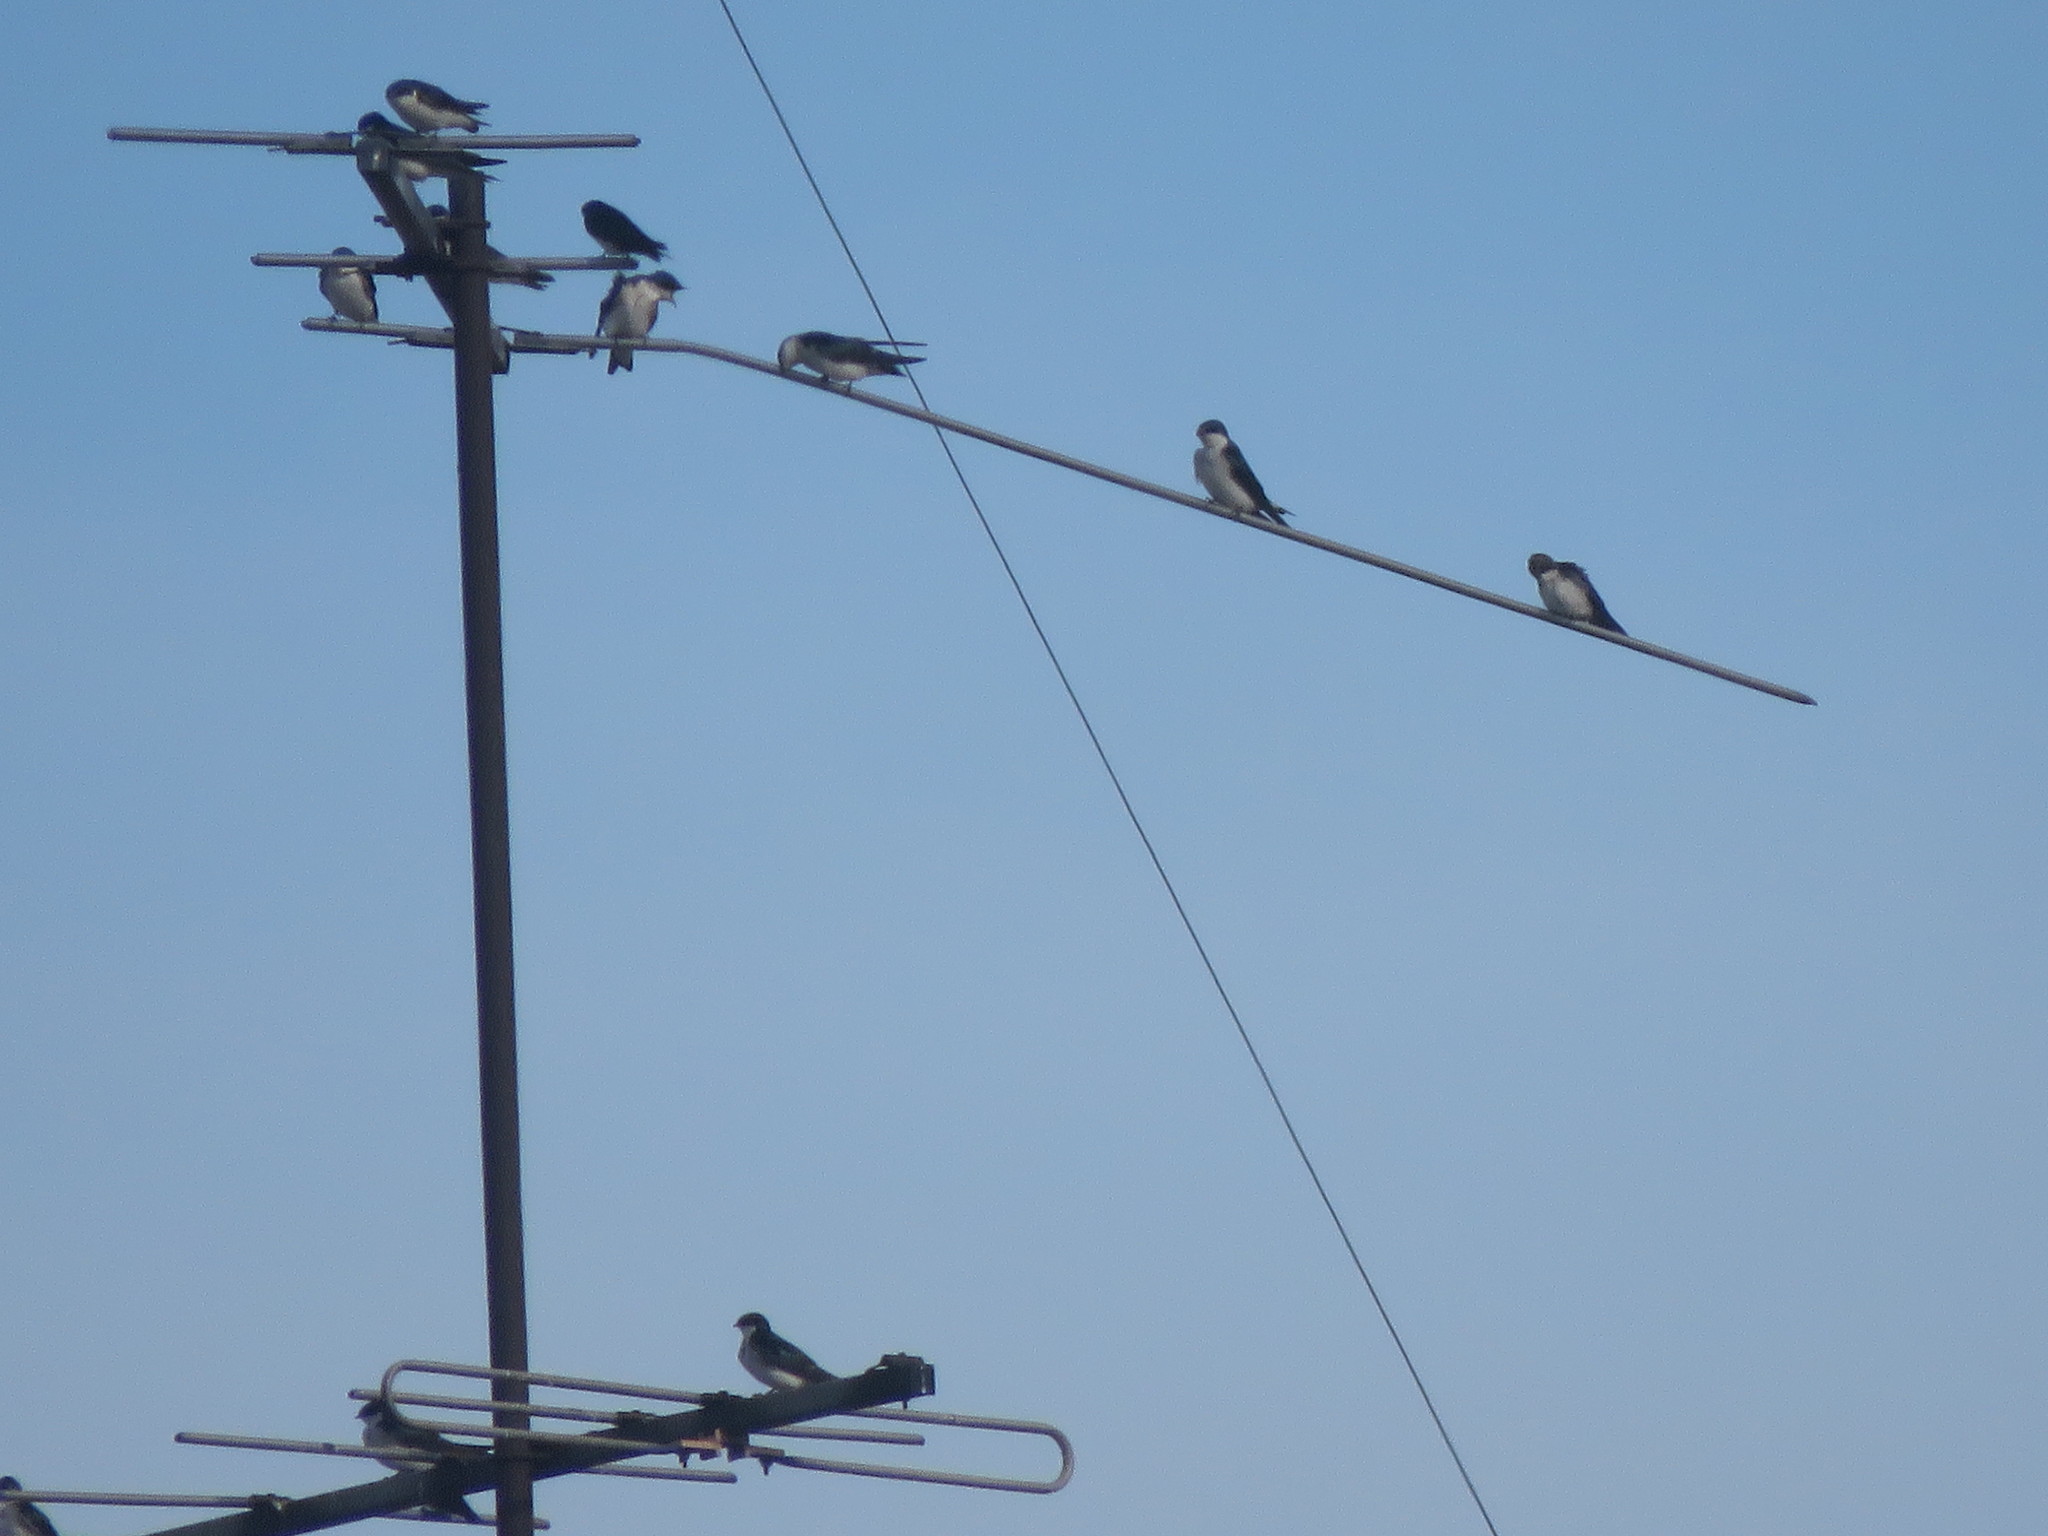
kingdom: Animalia
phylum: Chordata
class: Aves
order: Passeriformes
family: Hirundinidae
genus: Tachycineta
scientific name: Tachycineta leucorrhoa
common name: White-rumped swallow
